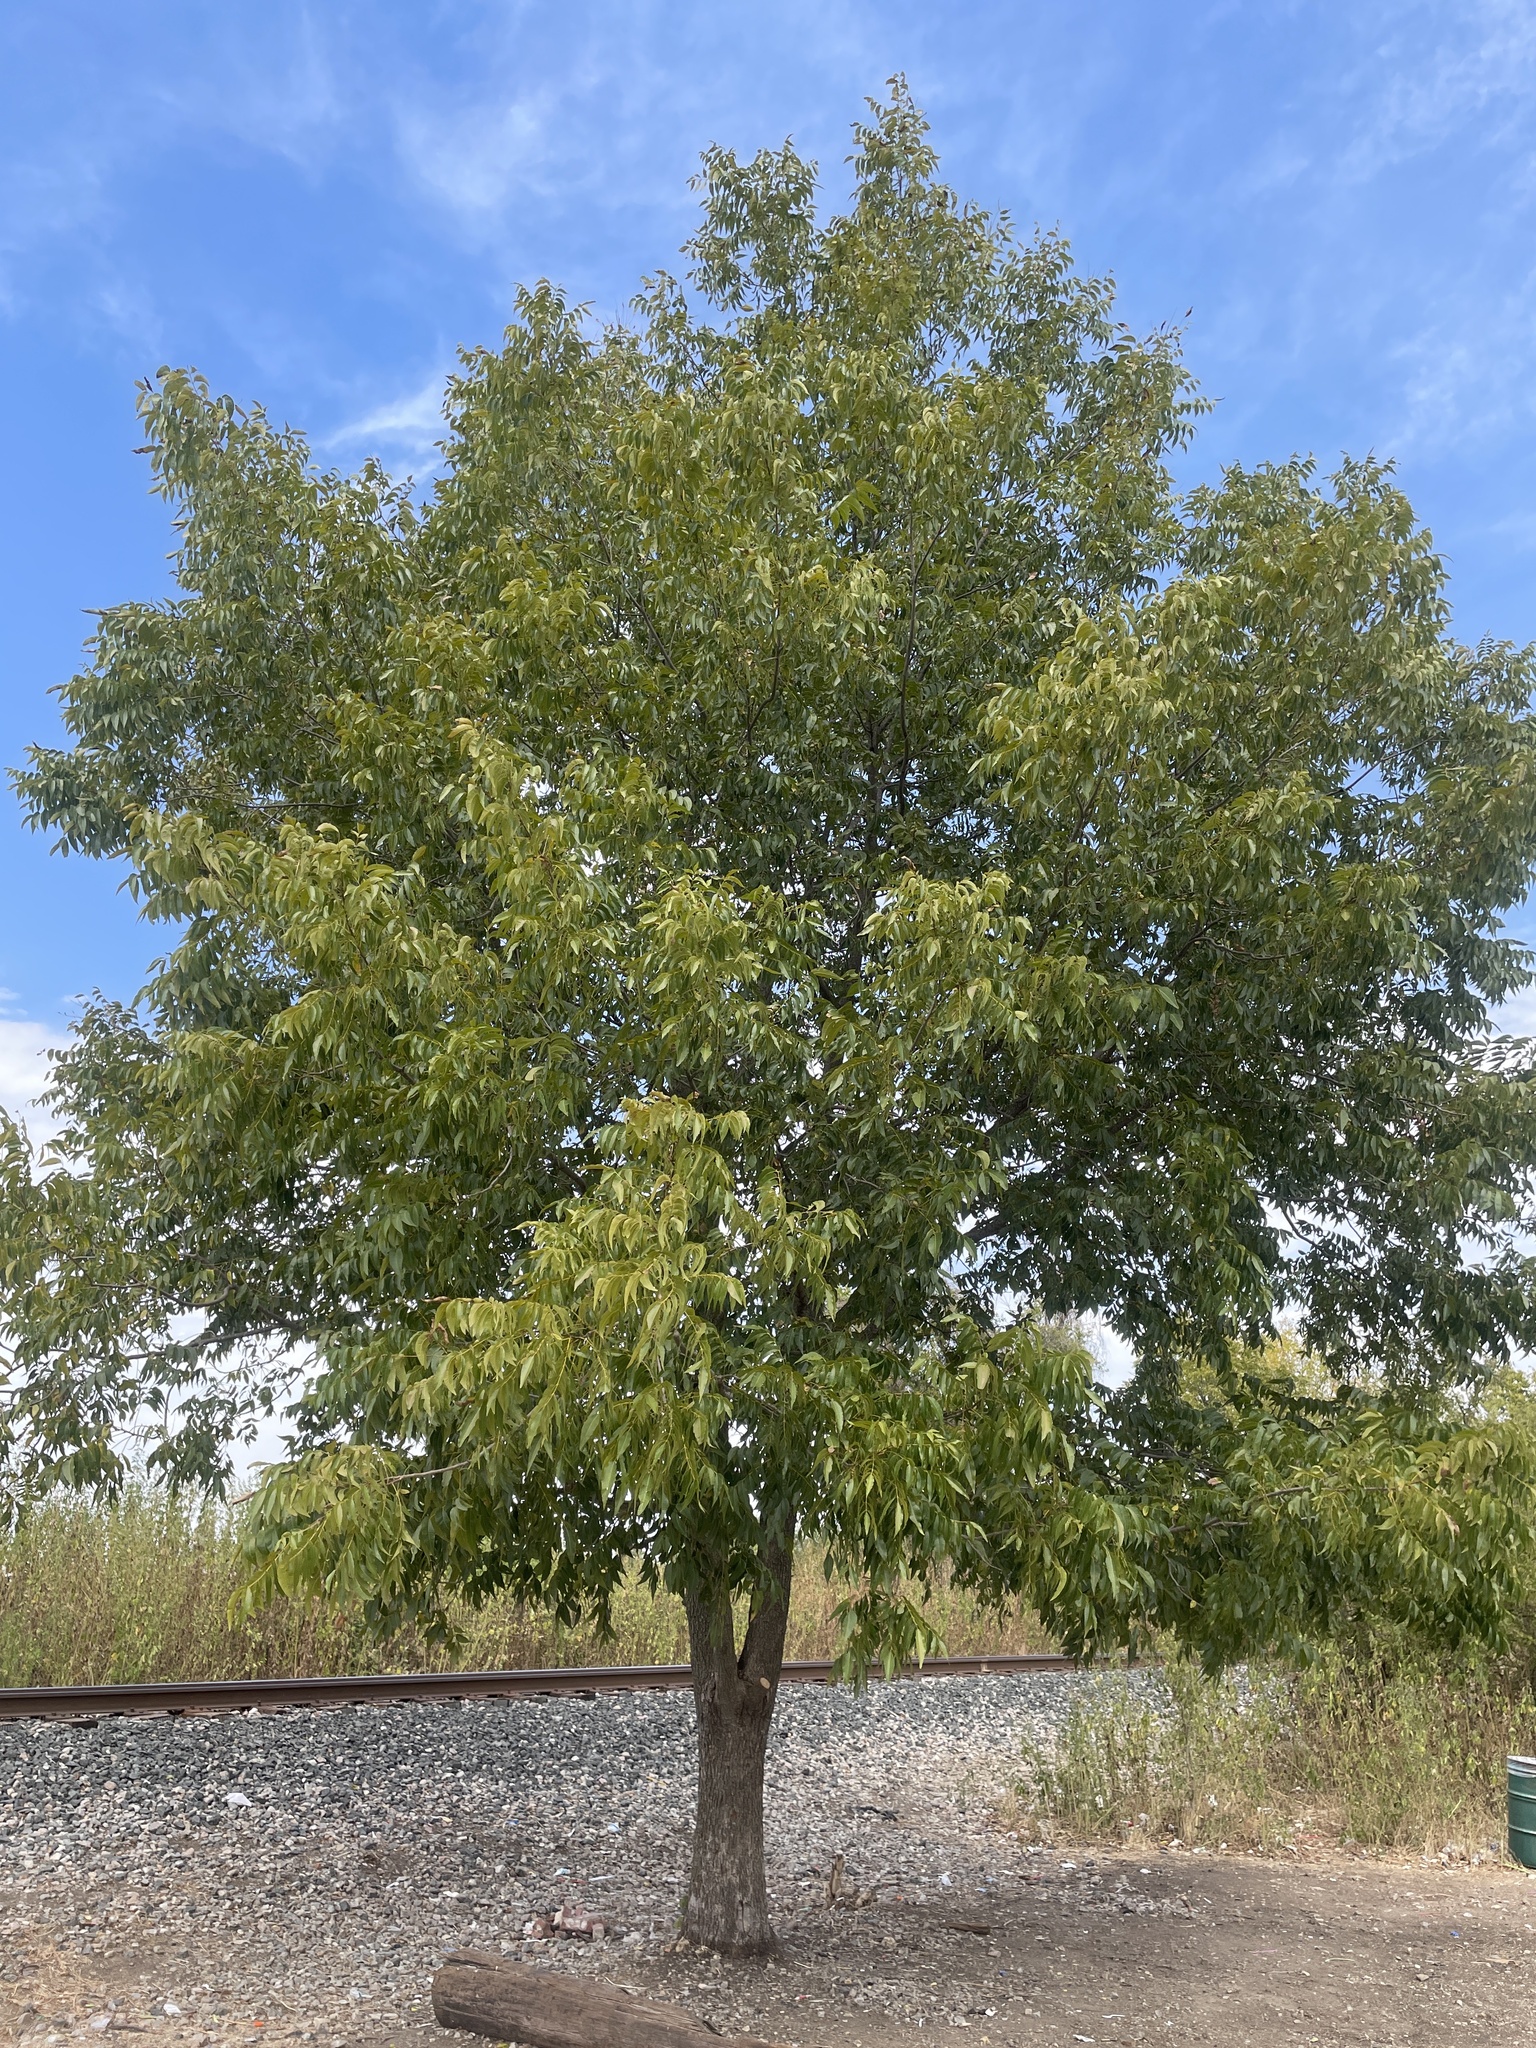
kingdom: Plantae
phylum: Tracheophyta
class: Magnoliopsida
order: Fagales
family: Juglandaceae
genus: Carya
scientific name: Carya illinoinensis
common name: Pecan
